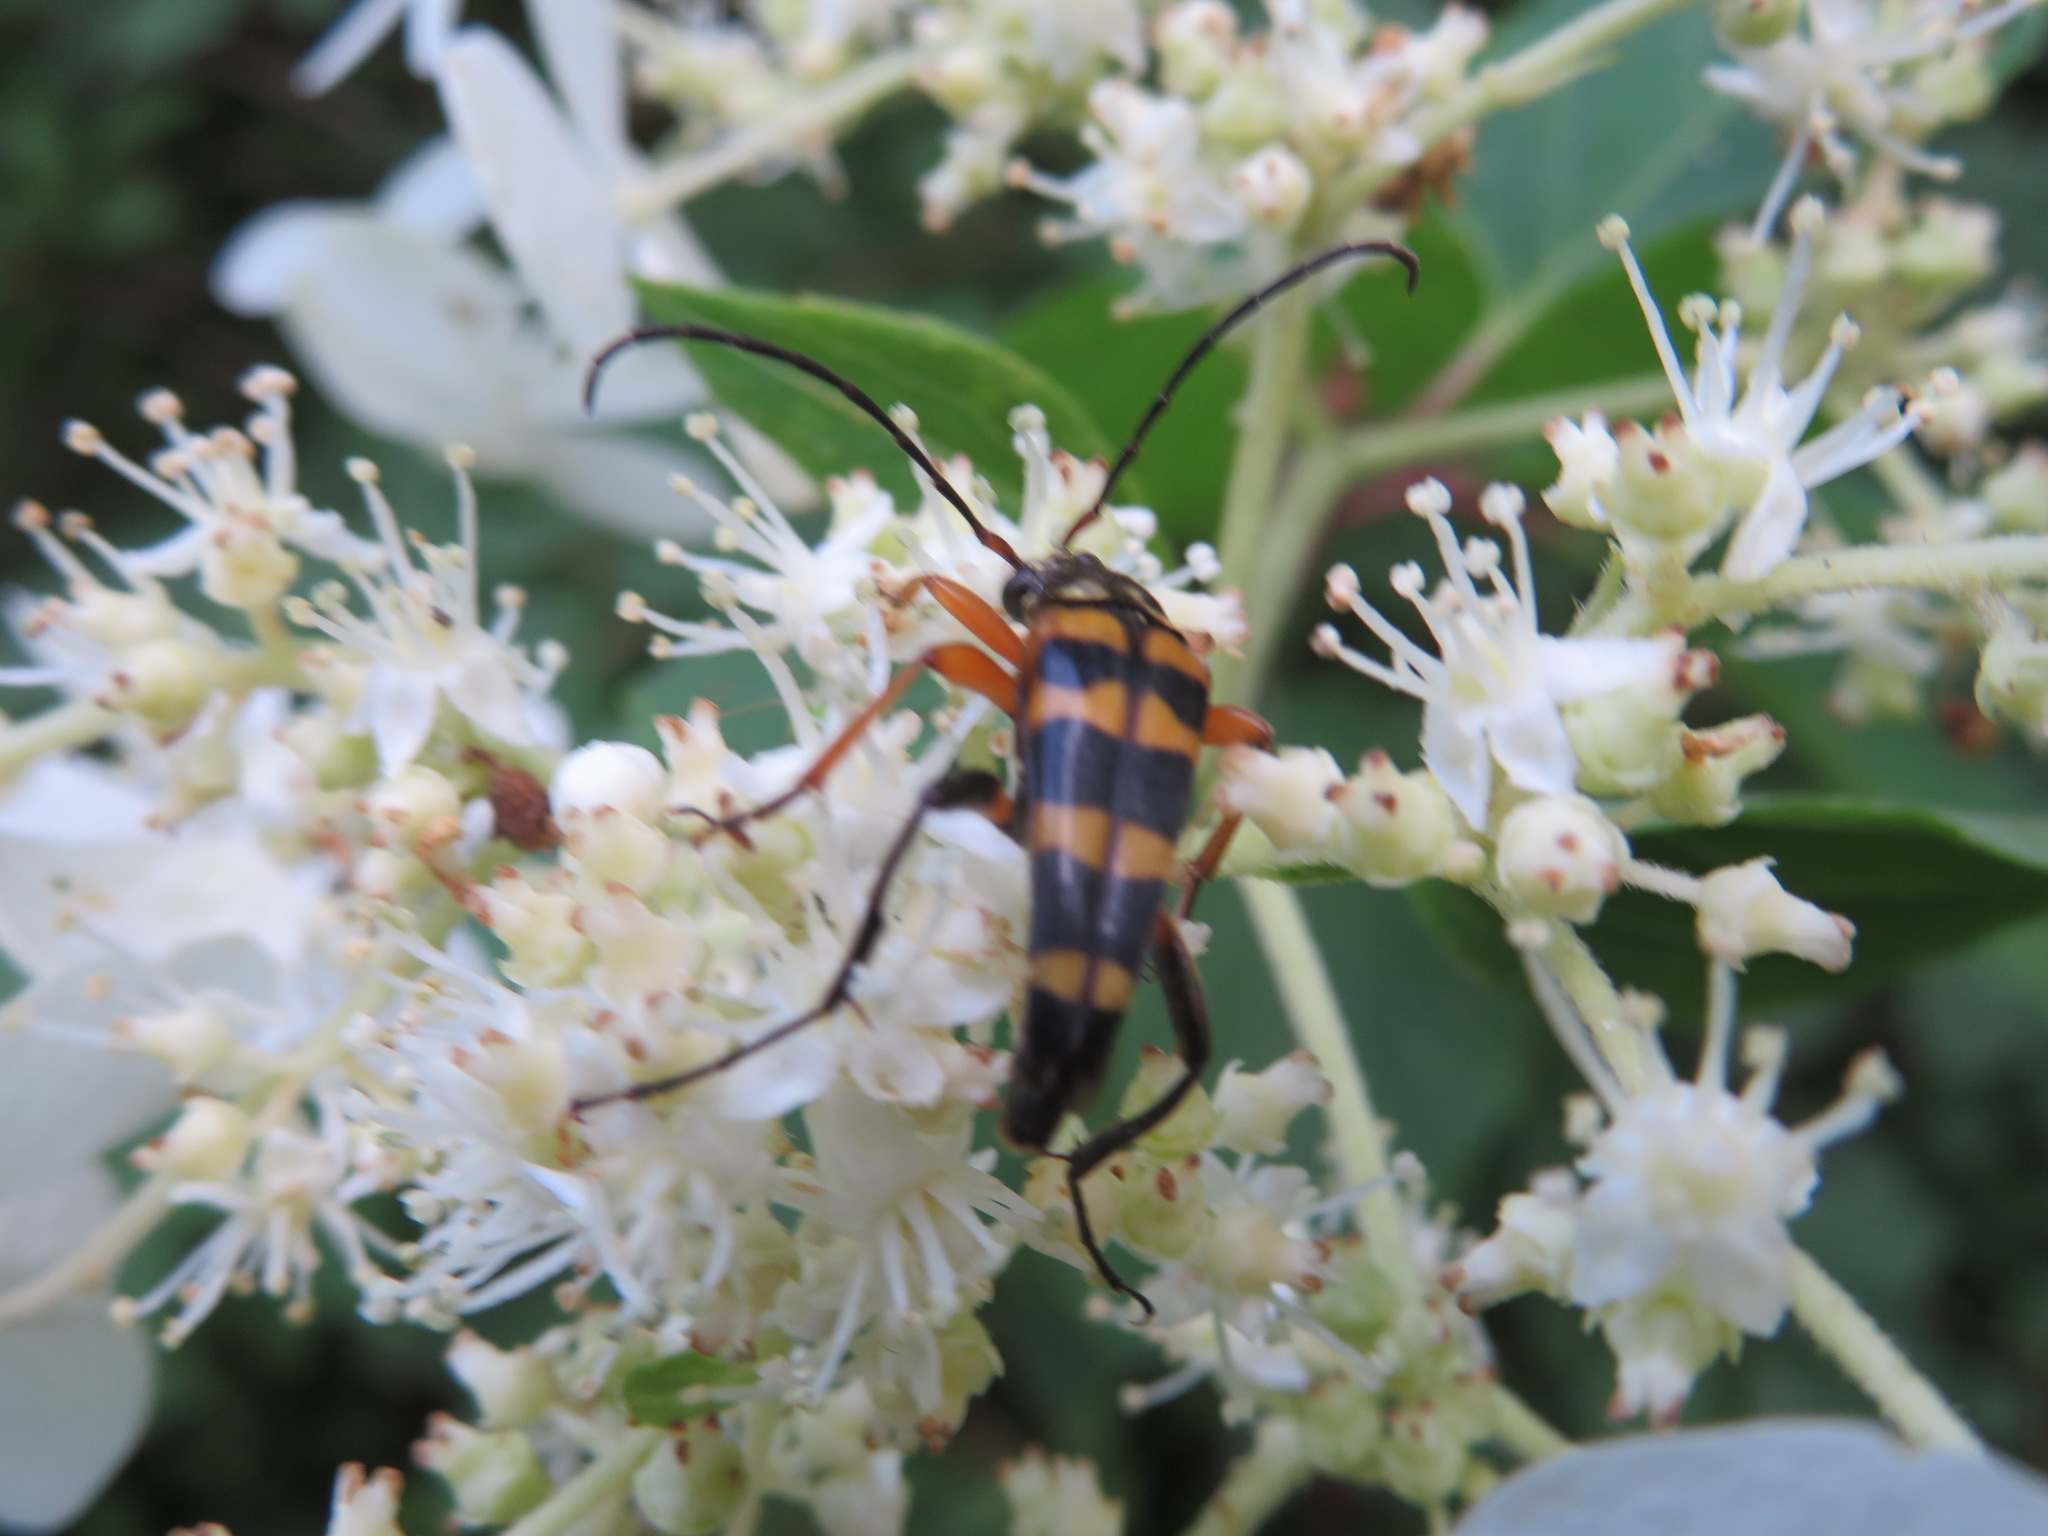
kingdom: Animalia
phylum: Arthropoda
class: Insecta
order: Coleoptera
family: Cerambycidae
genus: Leptura
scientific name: Leptura ochraceofasciata
